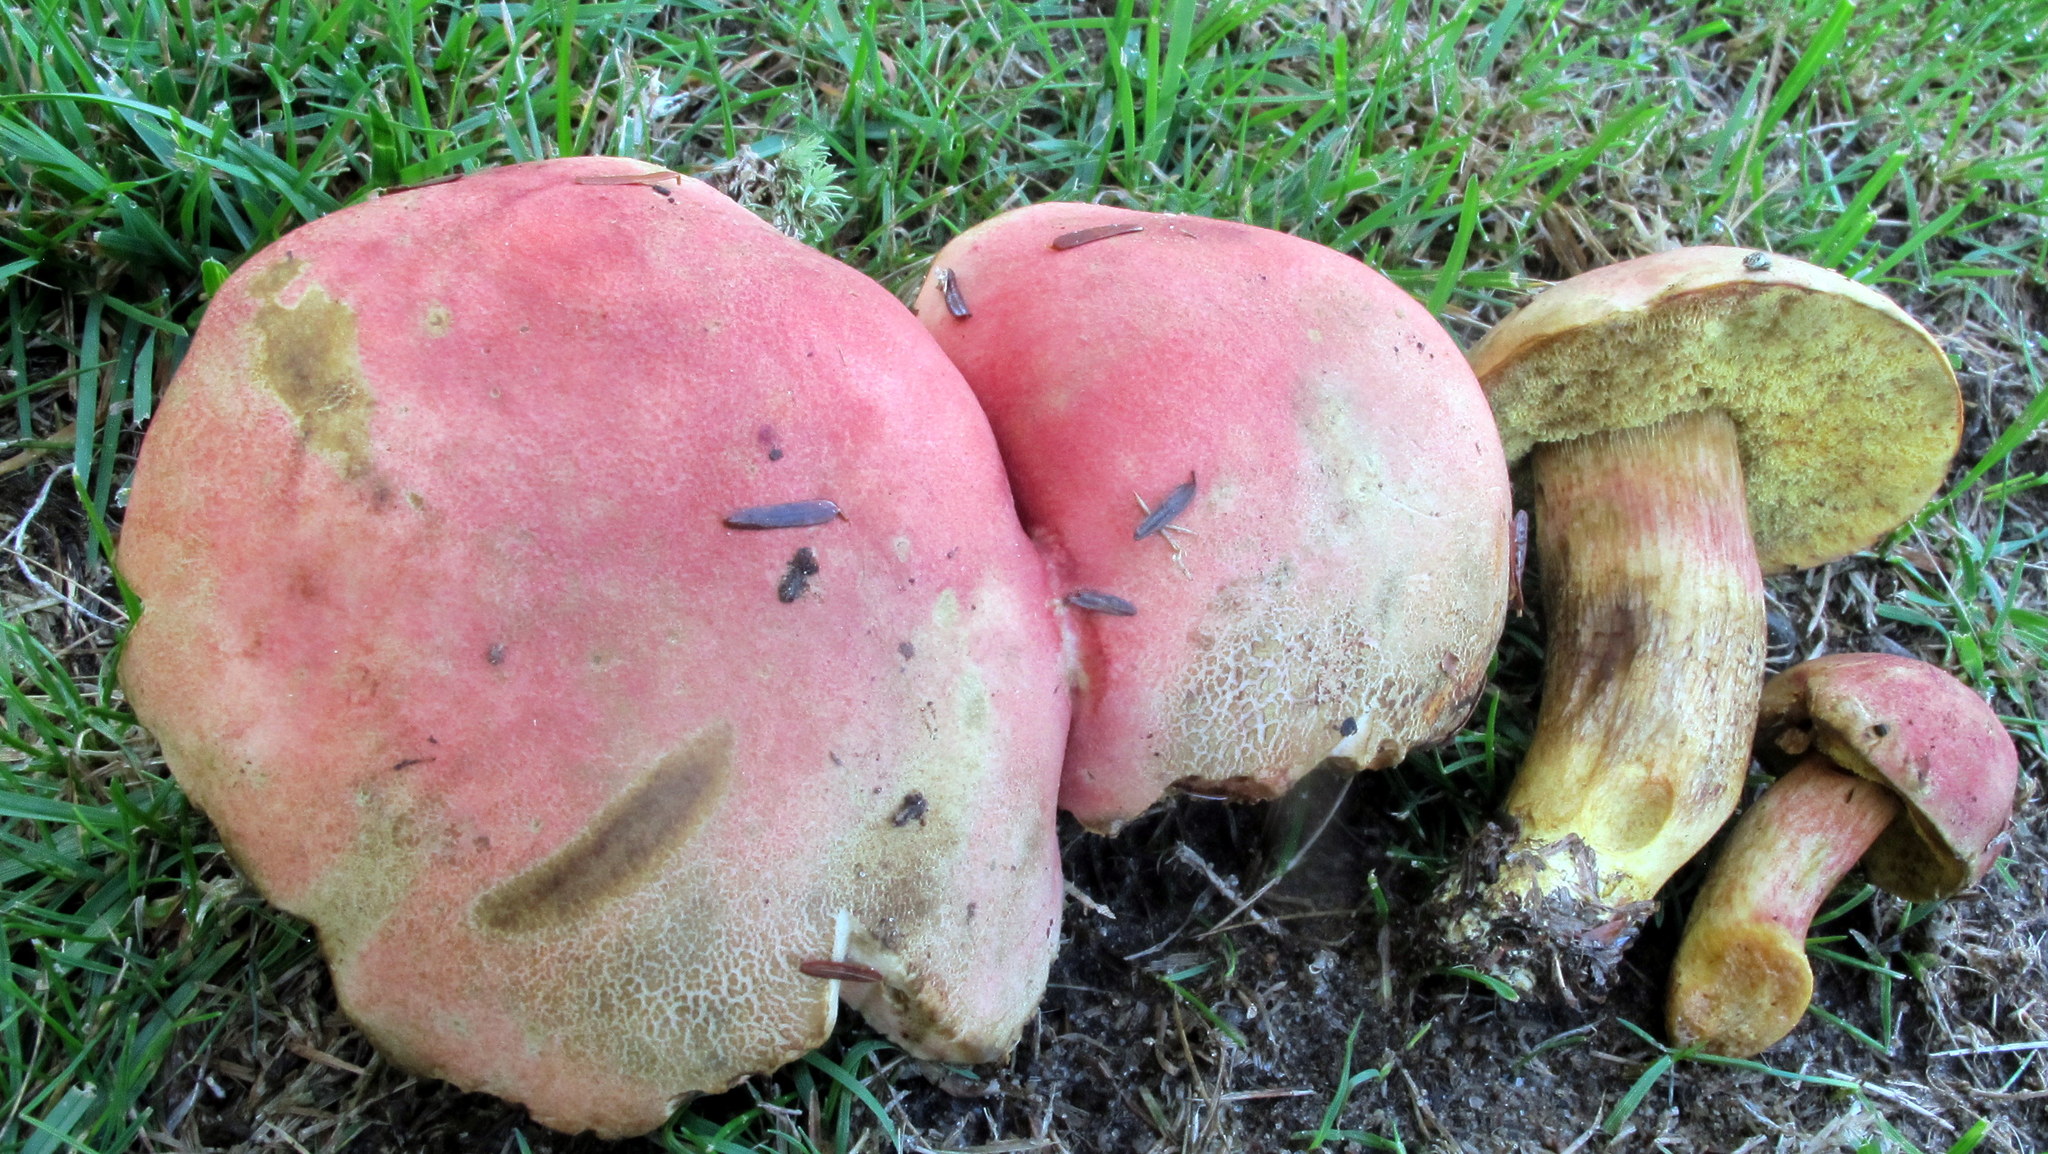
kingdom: Fungi
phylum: Basidiomycota
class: Agaricomycetes
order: Boletales
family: Boletaceae
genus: Boletus
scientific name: Boletus
